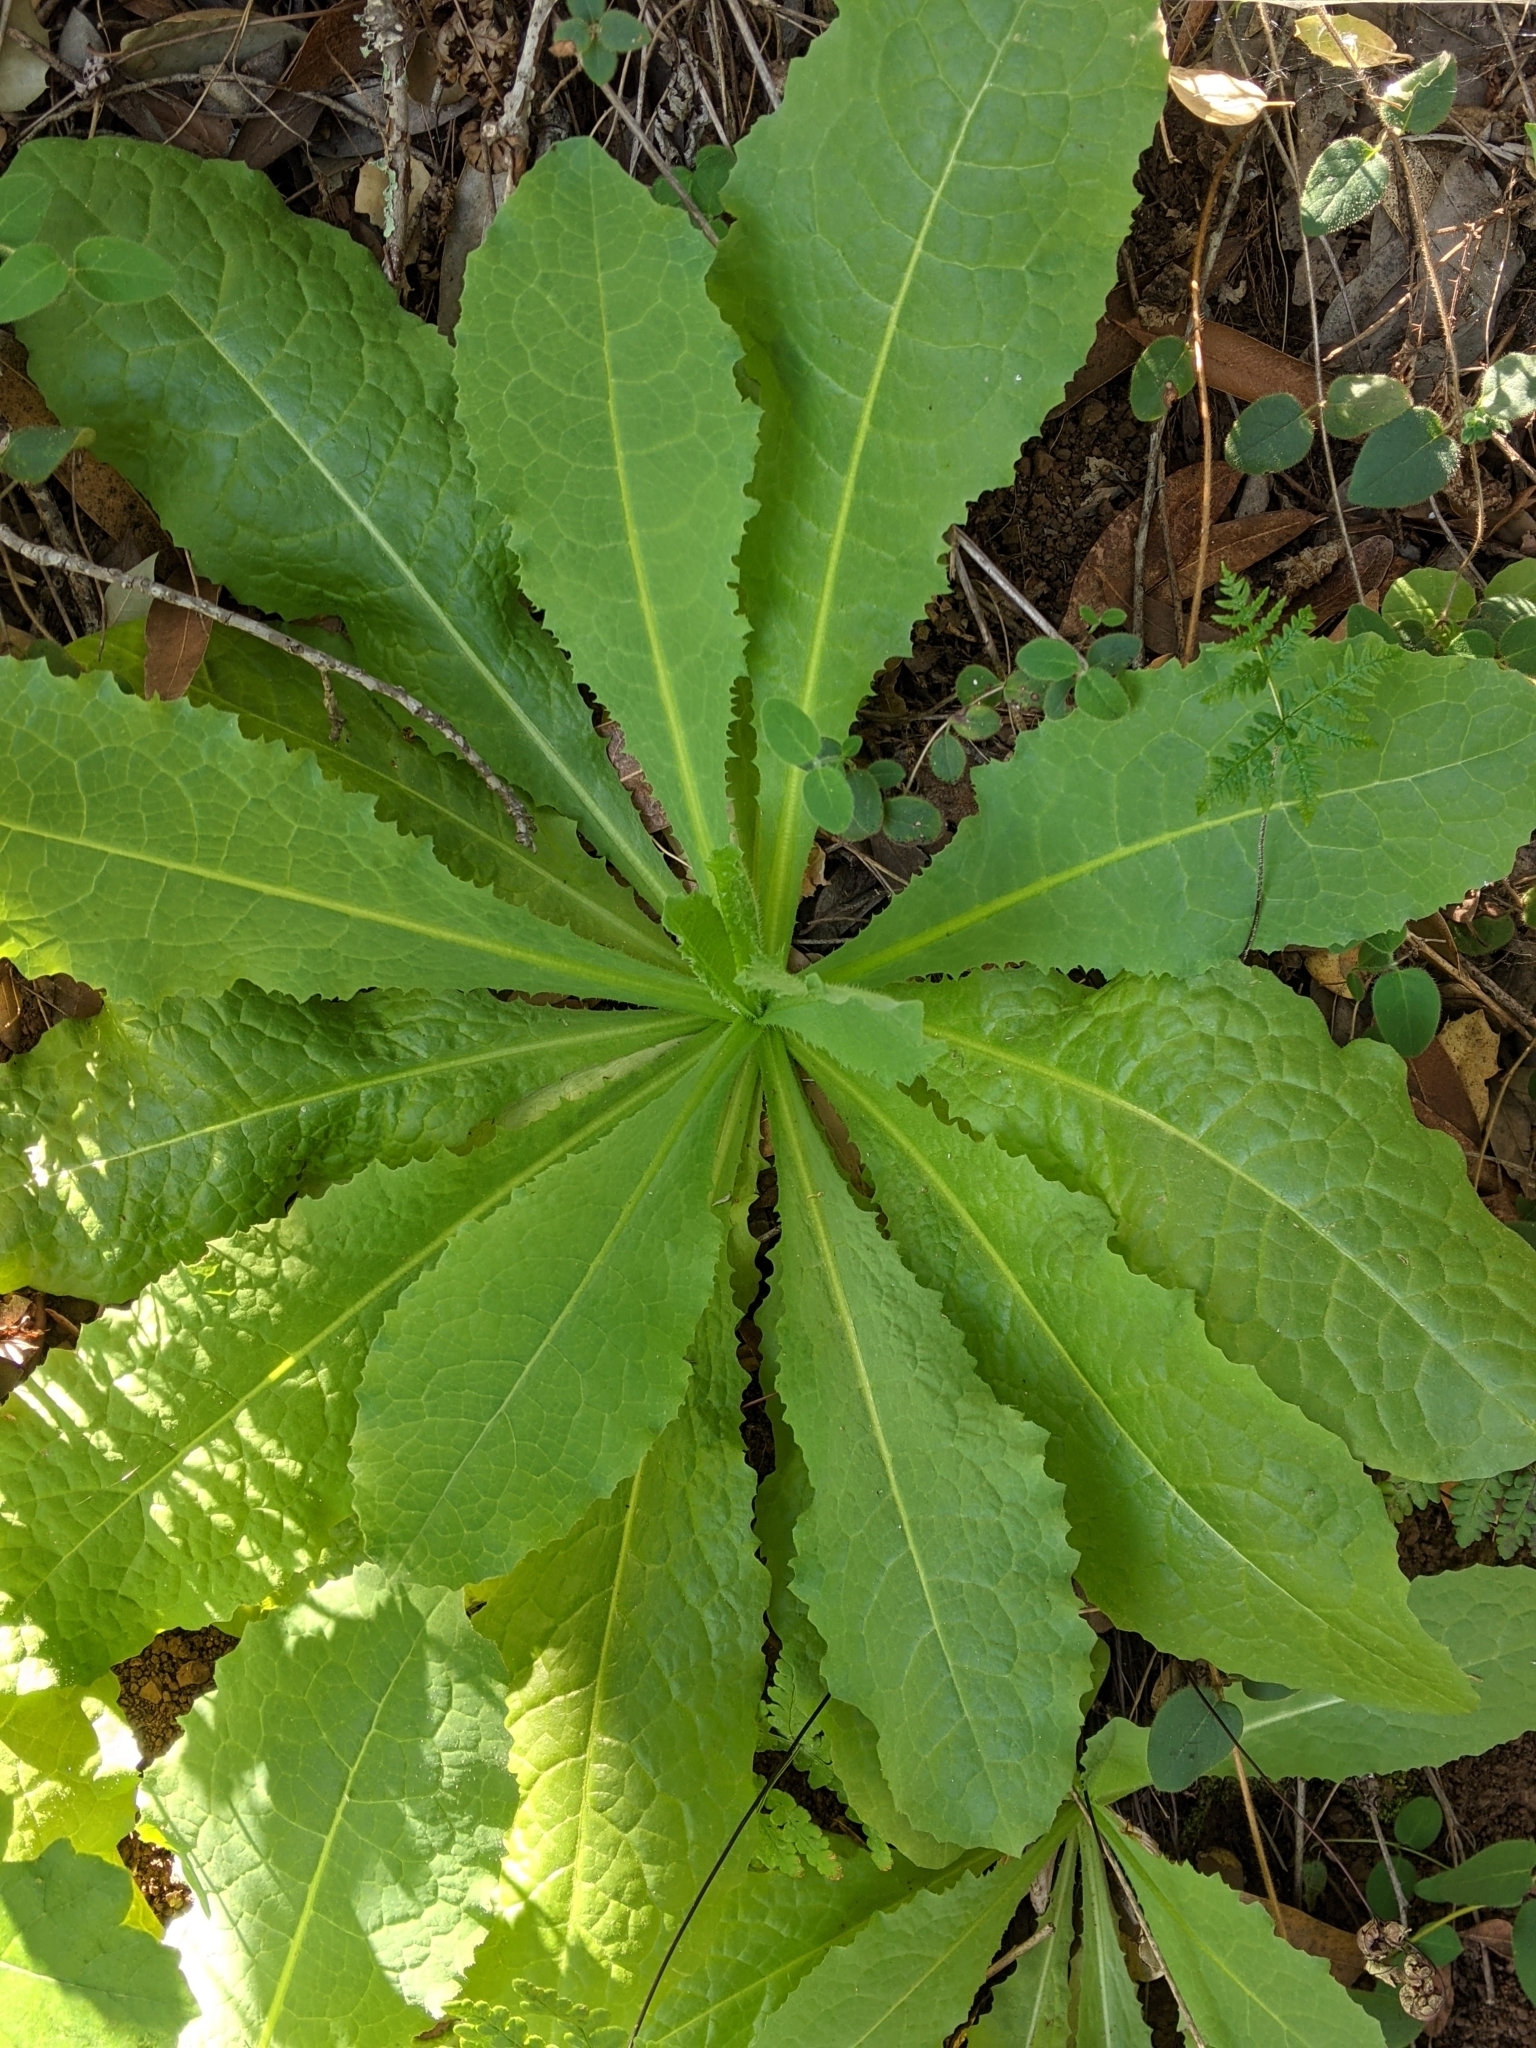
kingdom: Plantae
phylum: Tracheophyta
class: Magnoliopsida
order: Asterales
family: Asteraceae
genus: Lactuca
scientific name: Lactuca virosa
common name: Great lettuce
